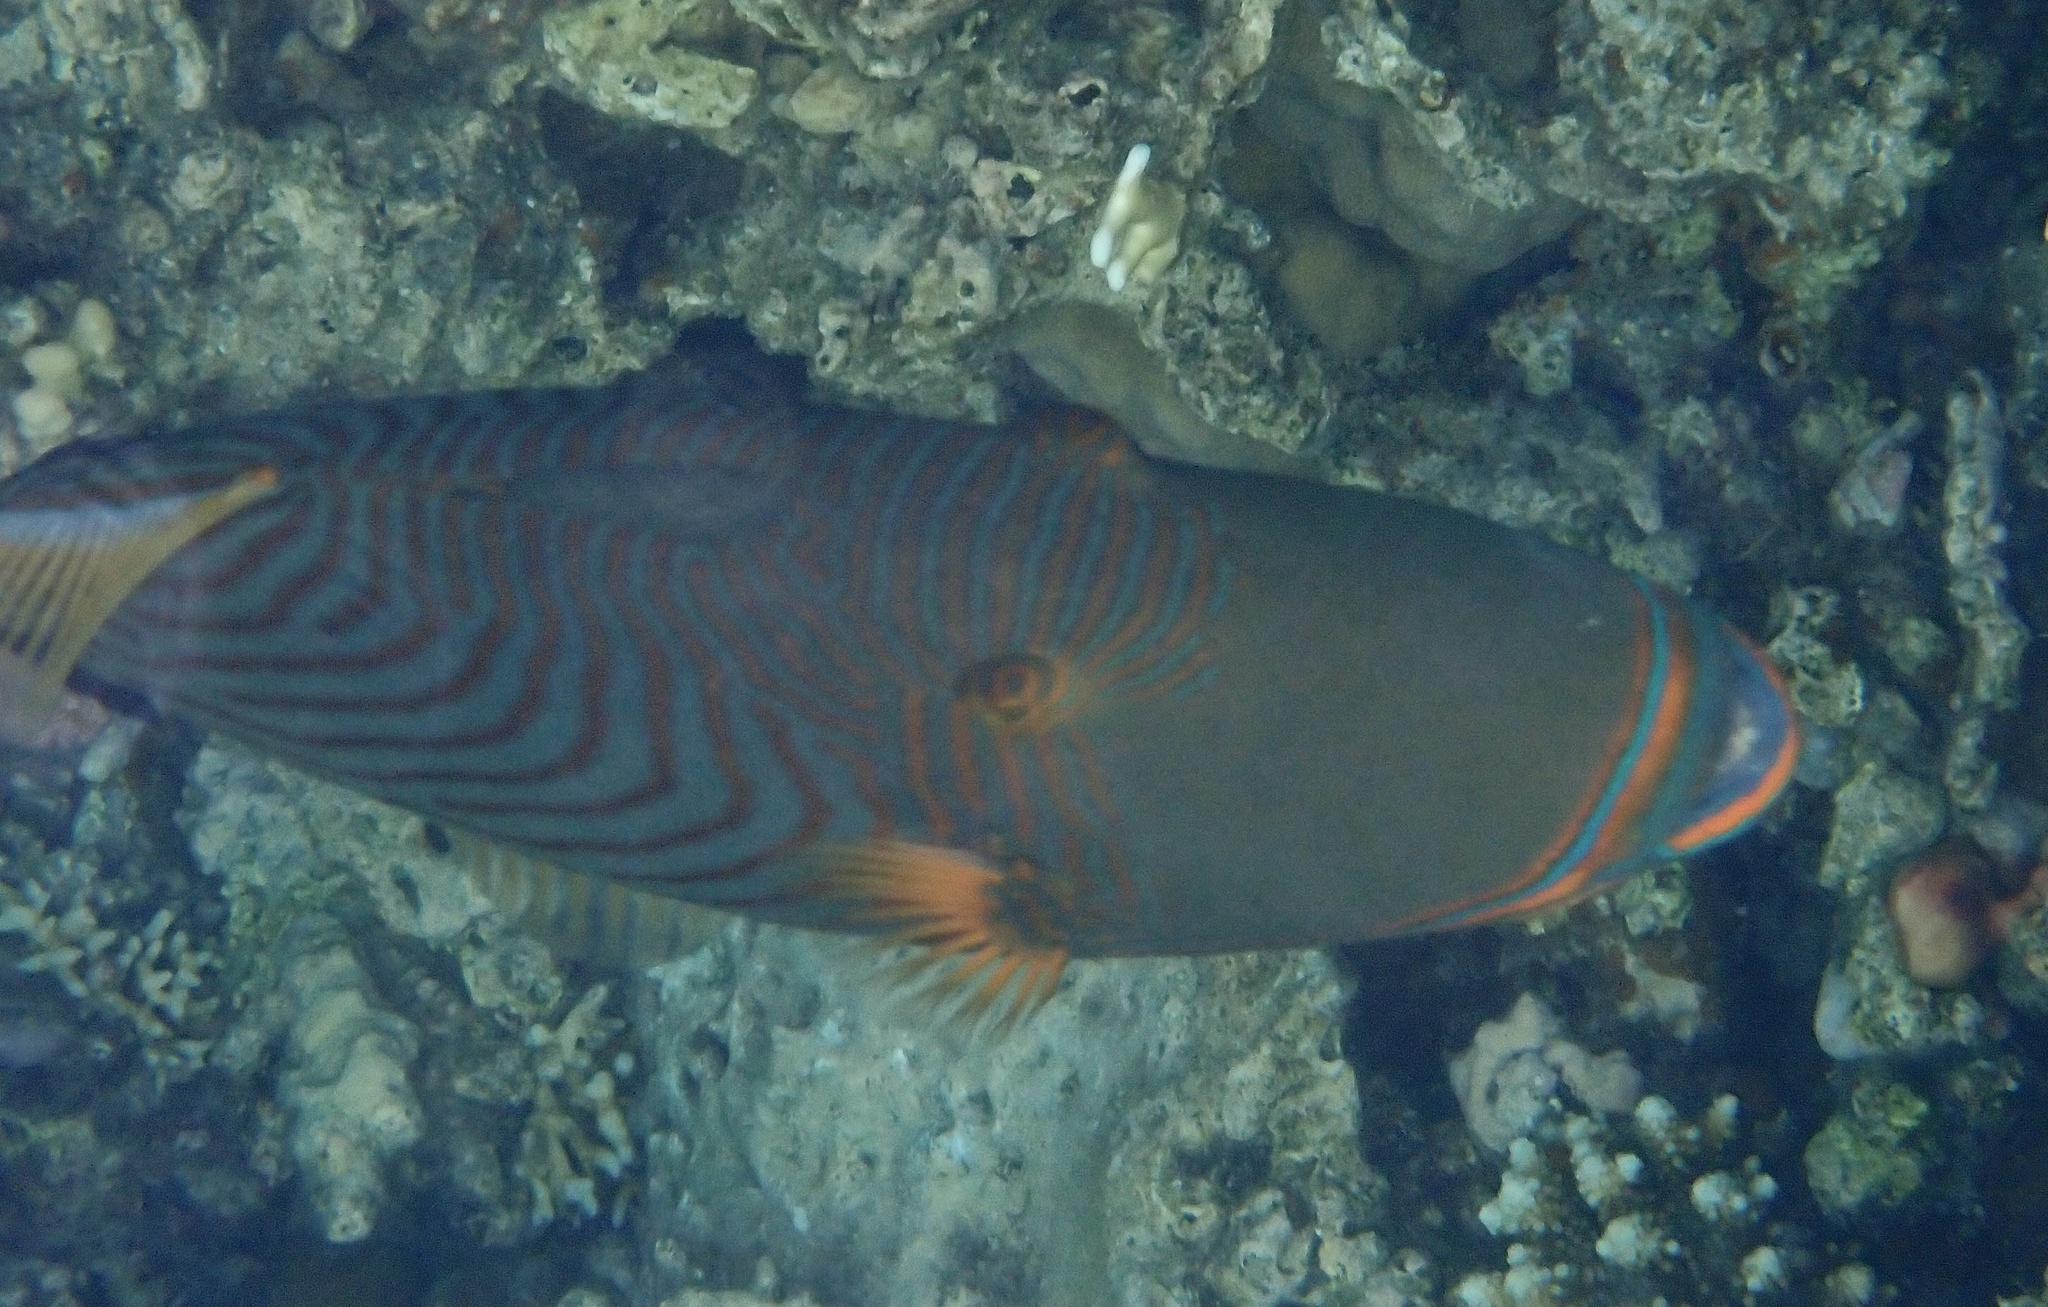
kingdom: Animalia
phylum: Chordata
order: Tetraodontiformes
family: Balistidae
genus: Balistapus
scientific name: Balistapus undulatus
